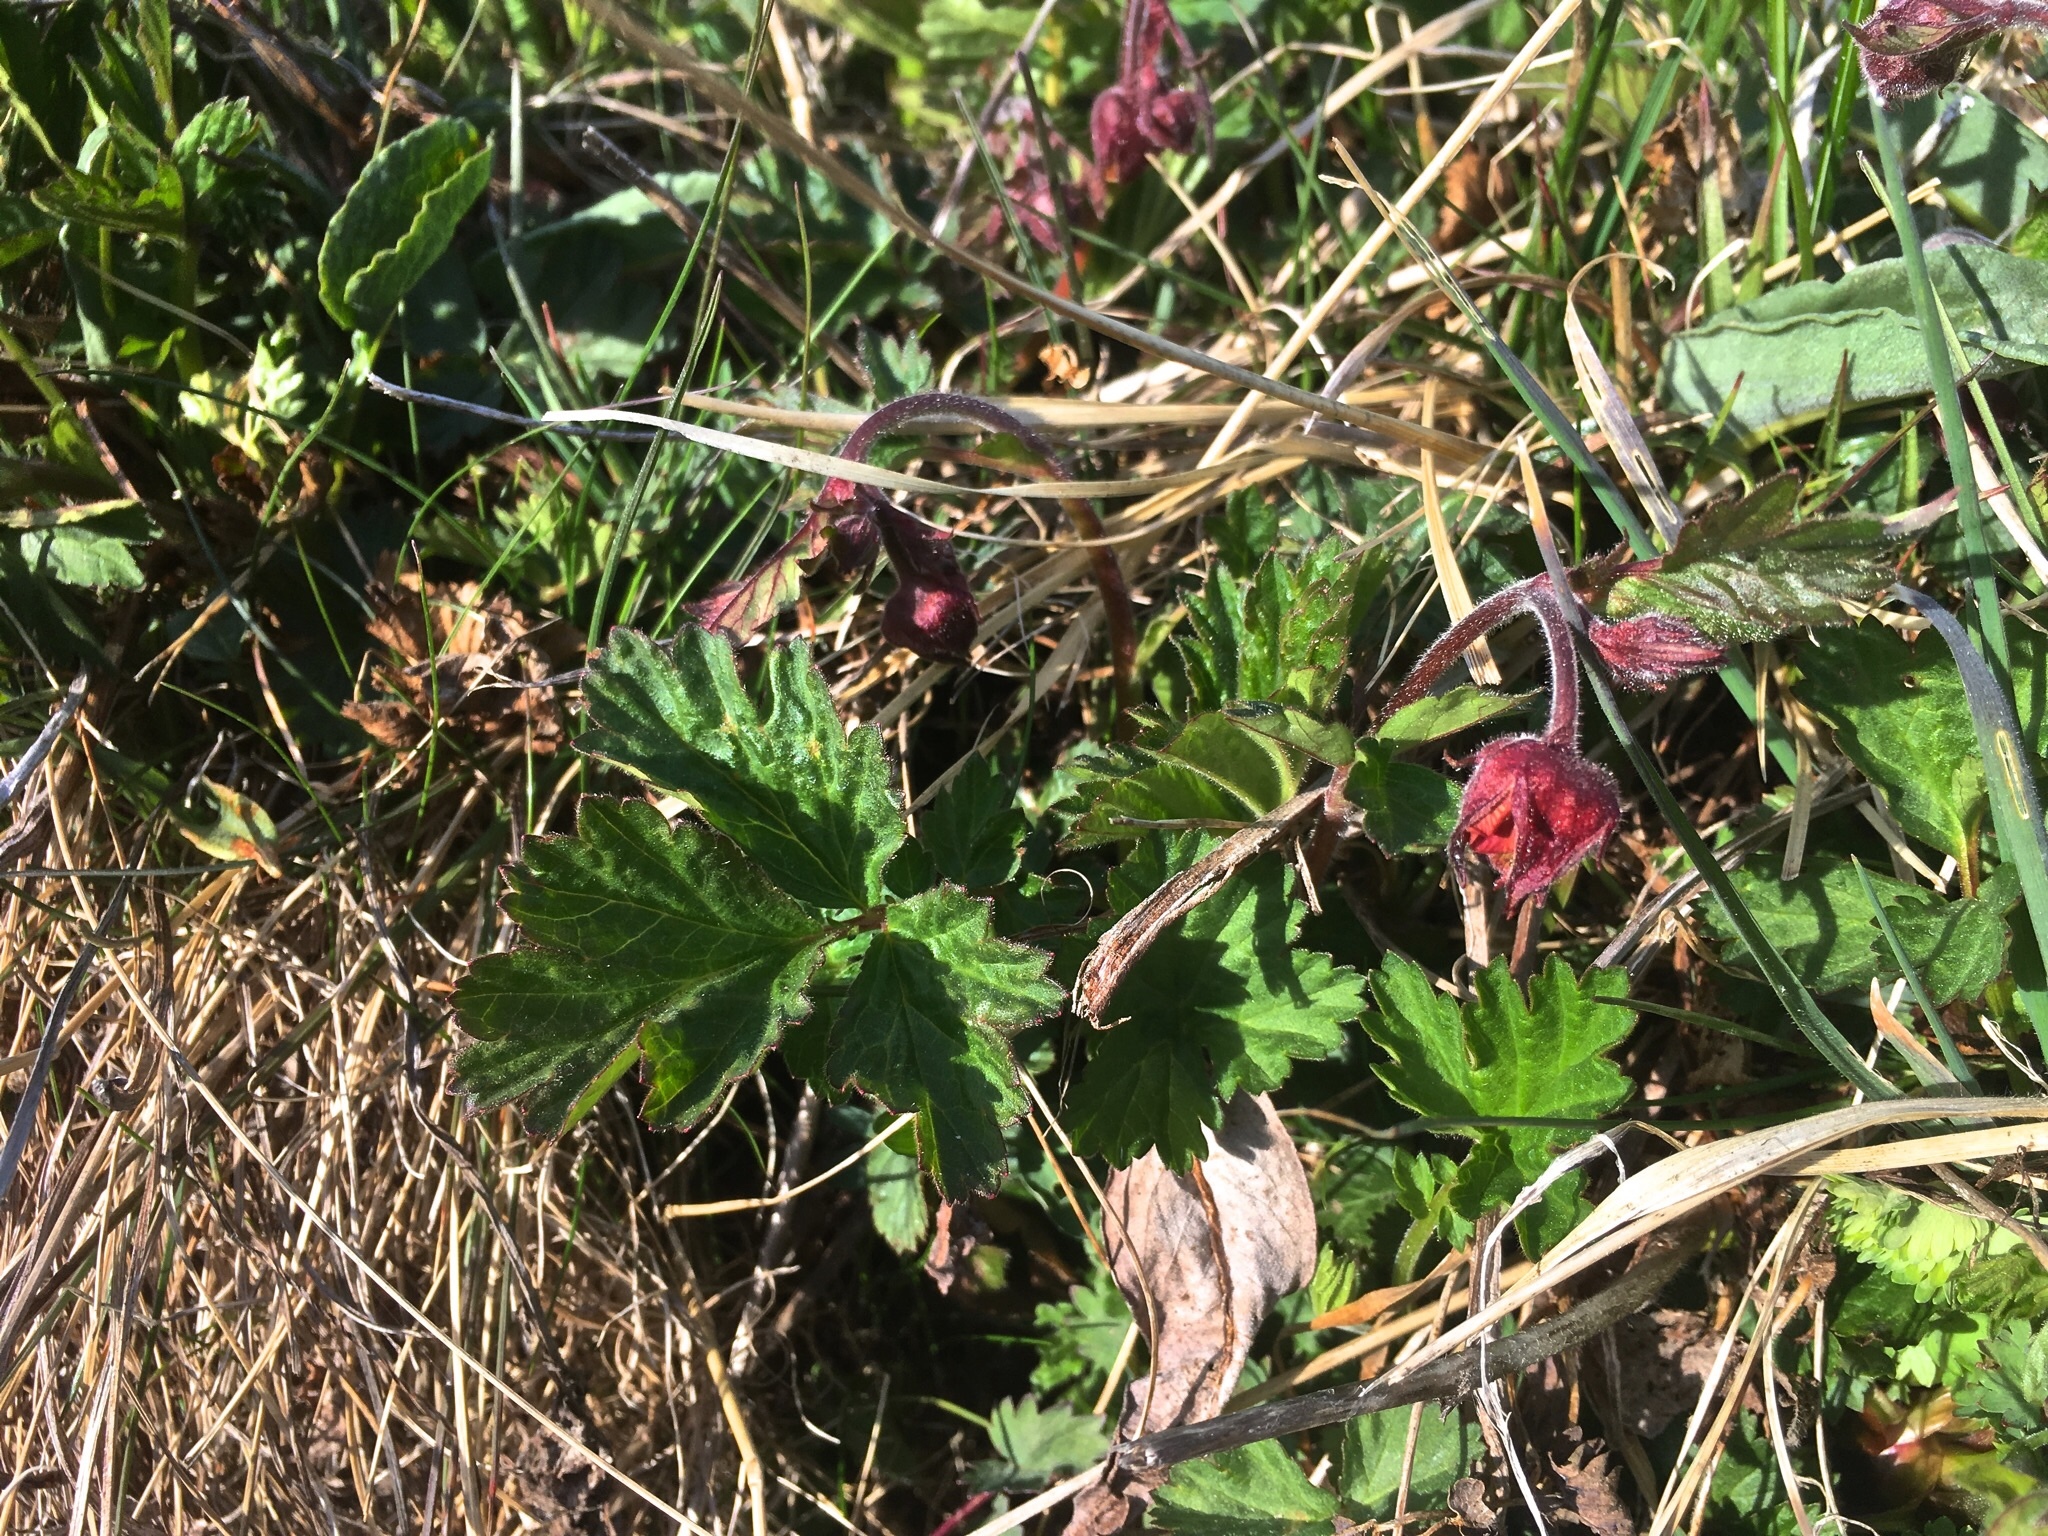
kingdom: Plantae
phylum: Tracheophyta
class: Magnoliopsida
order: Rosales
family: Rosaceae
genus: Geum
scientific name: Geum rivale
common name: Water avens
